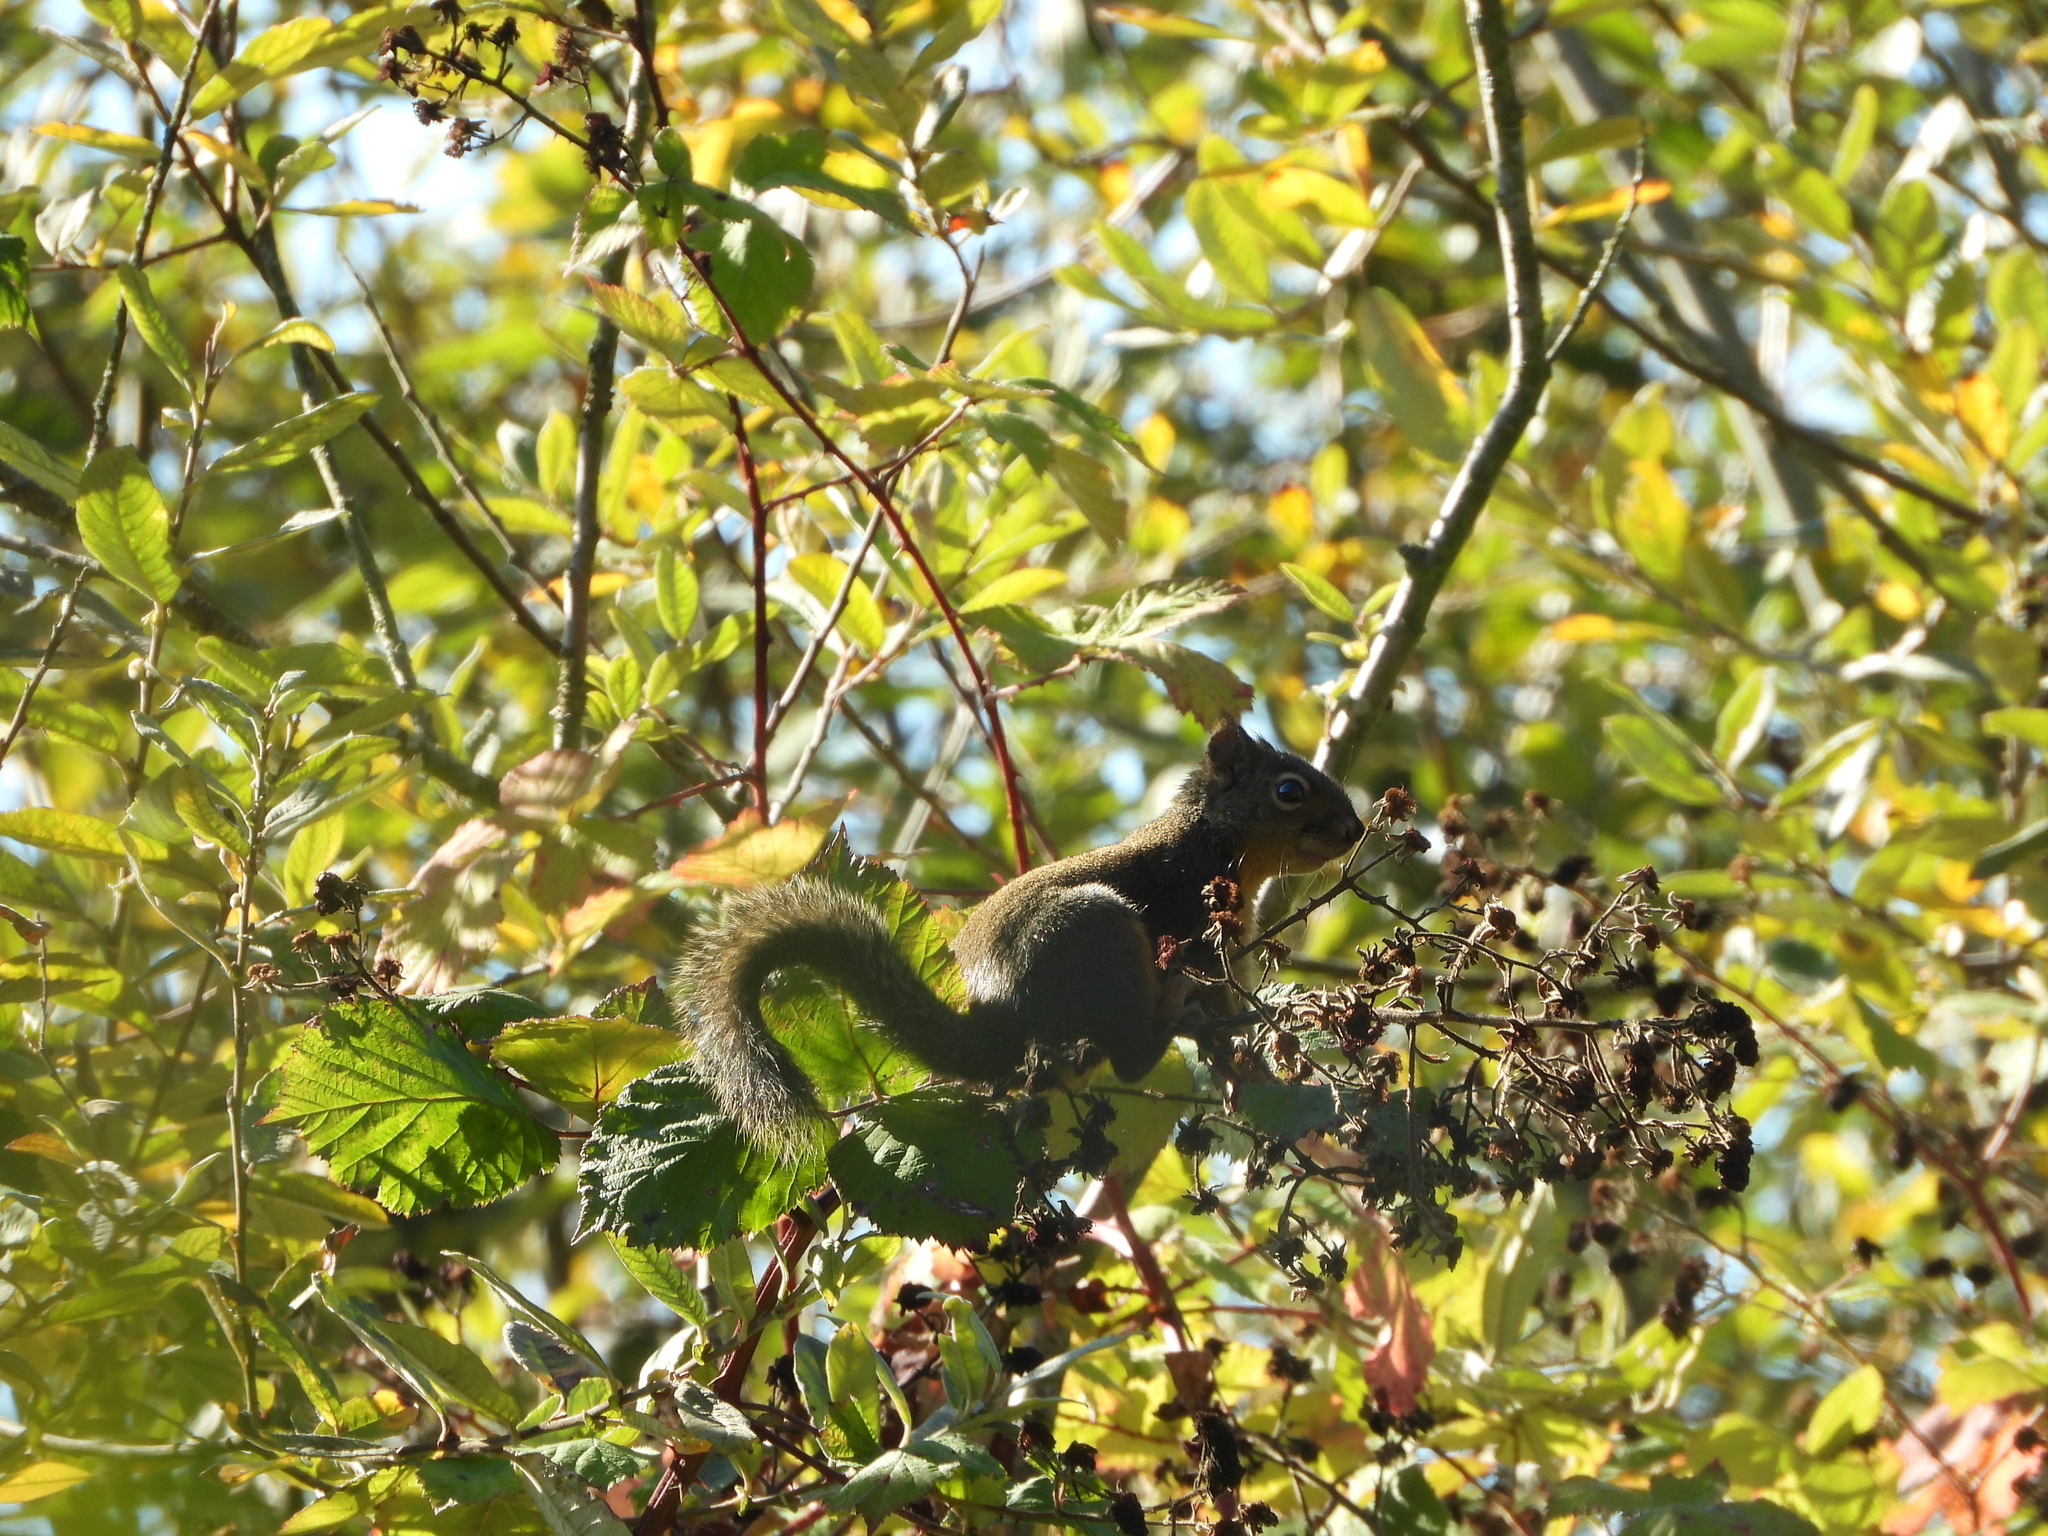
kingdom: Animalia
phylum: Chordata
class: Mammalia
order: Rodentia
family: Sciuridae
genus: Tamiasciurus
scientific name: Tamiasciurus douglasii
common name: Douglas's squirrel
